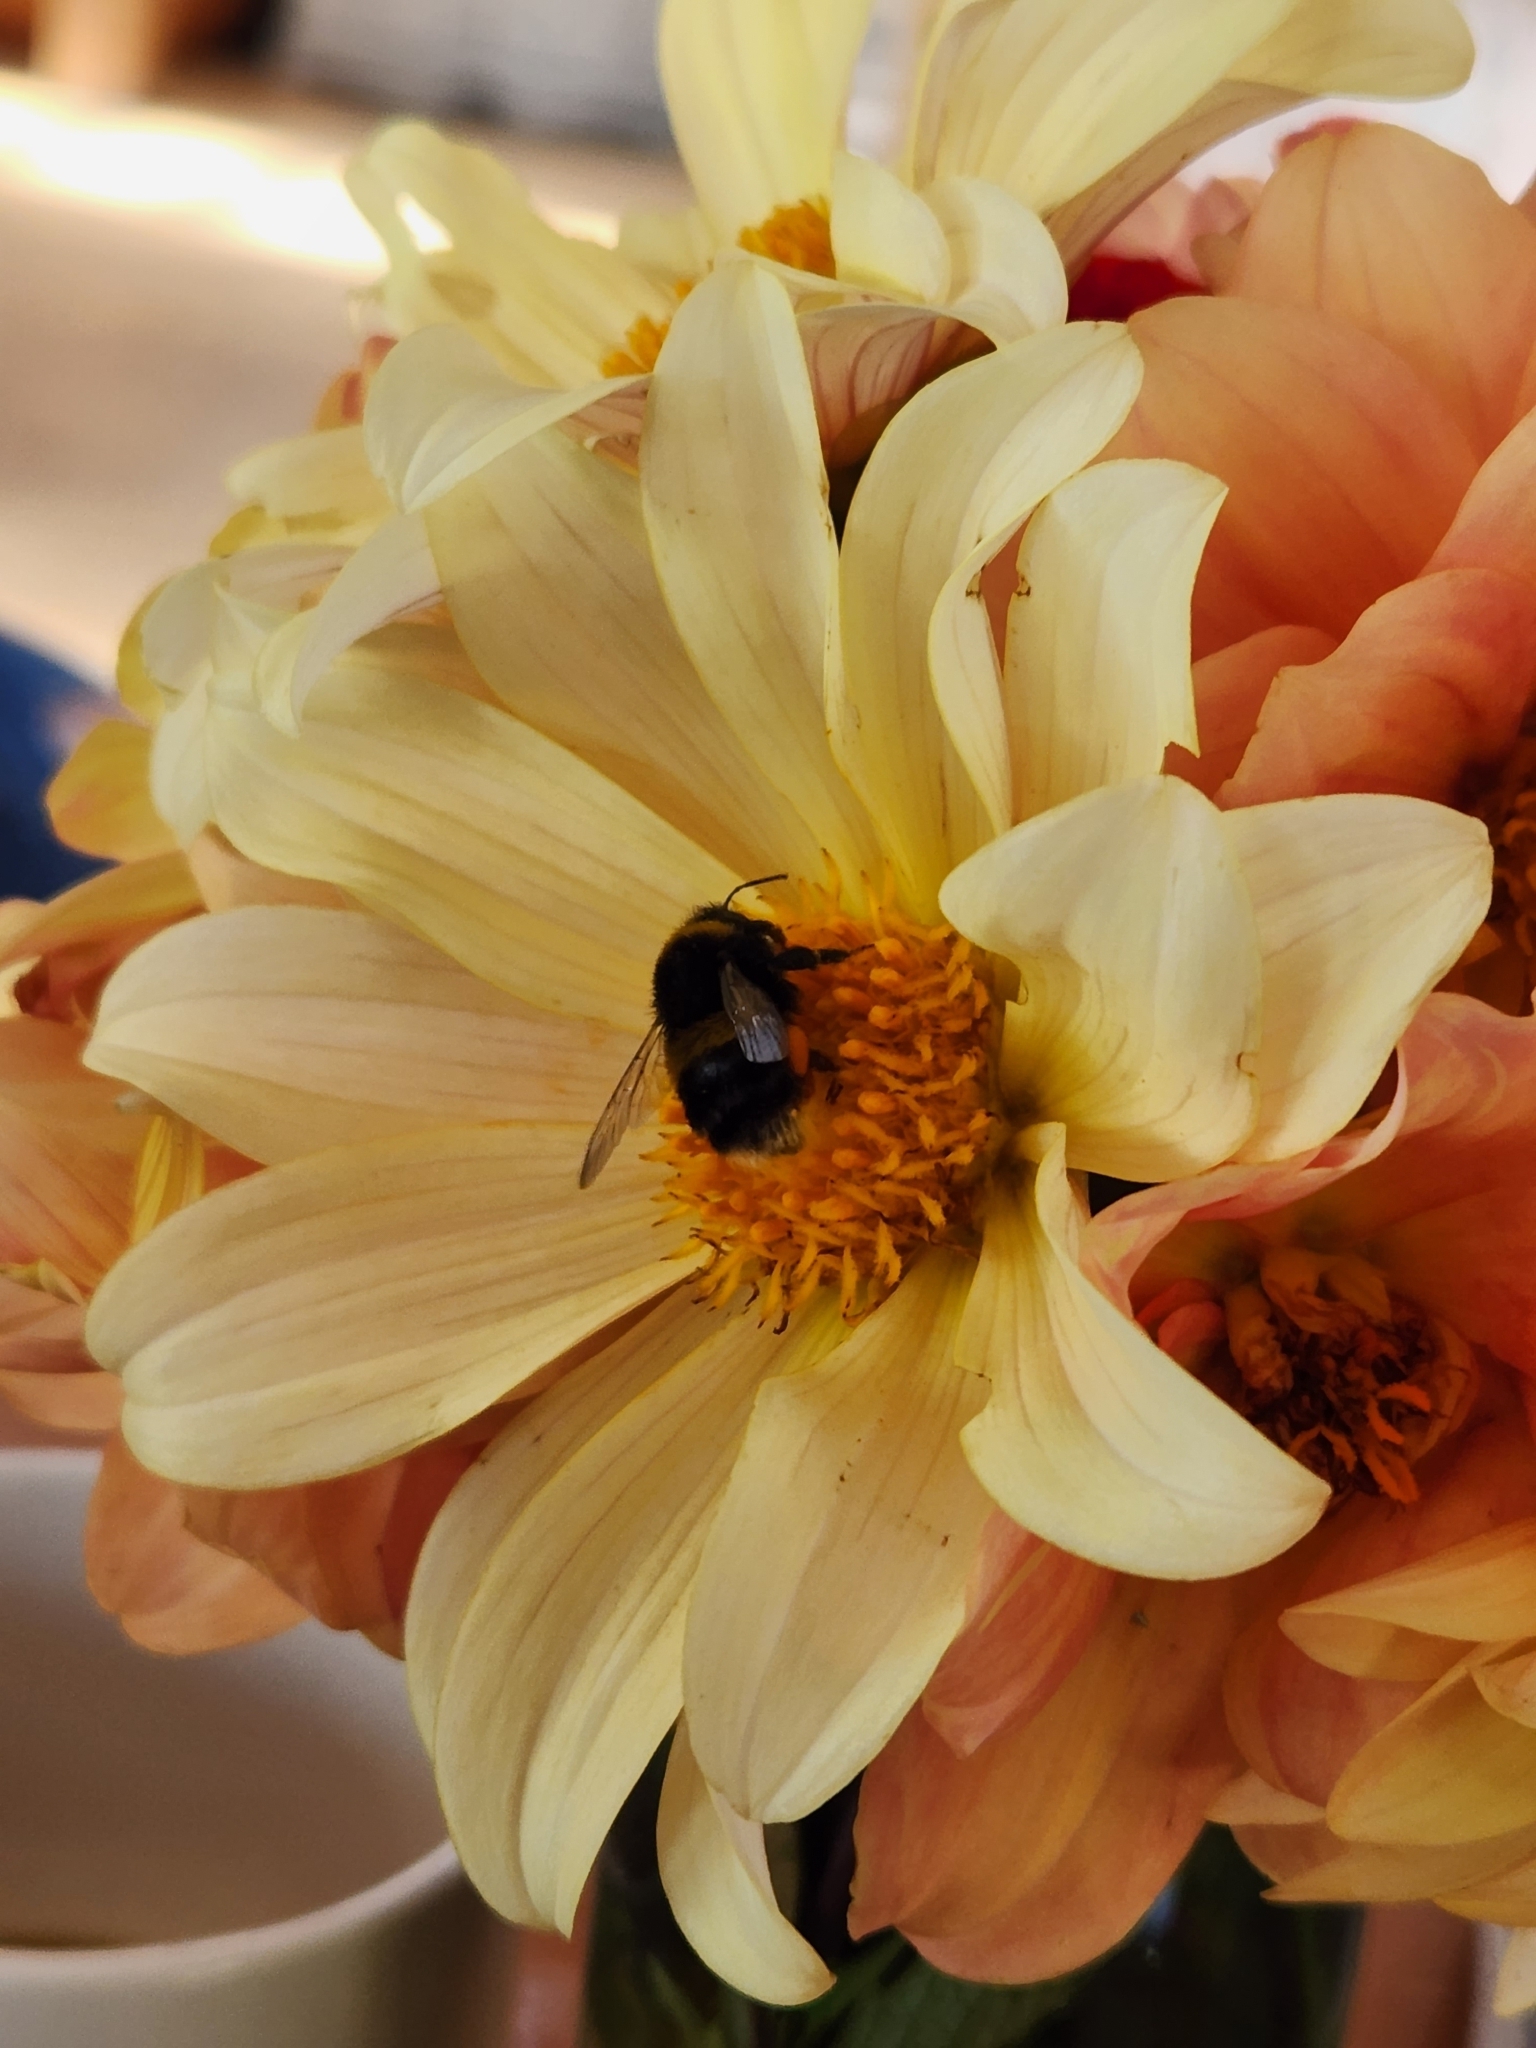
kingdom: Animalia
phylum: Arthropoda
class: Insecta
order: Hymenoptera
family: Apidae
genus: Bombus
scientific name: Bombus terrestris
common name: Buff-tailed bumblebee
